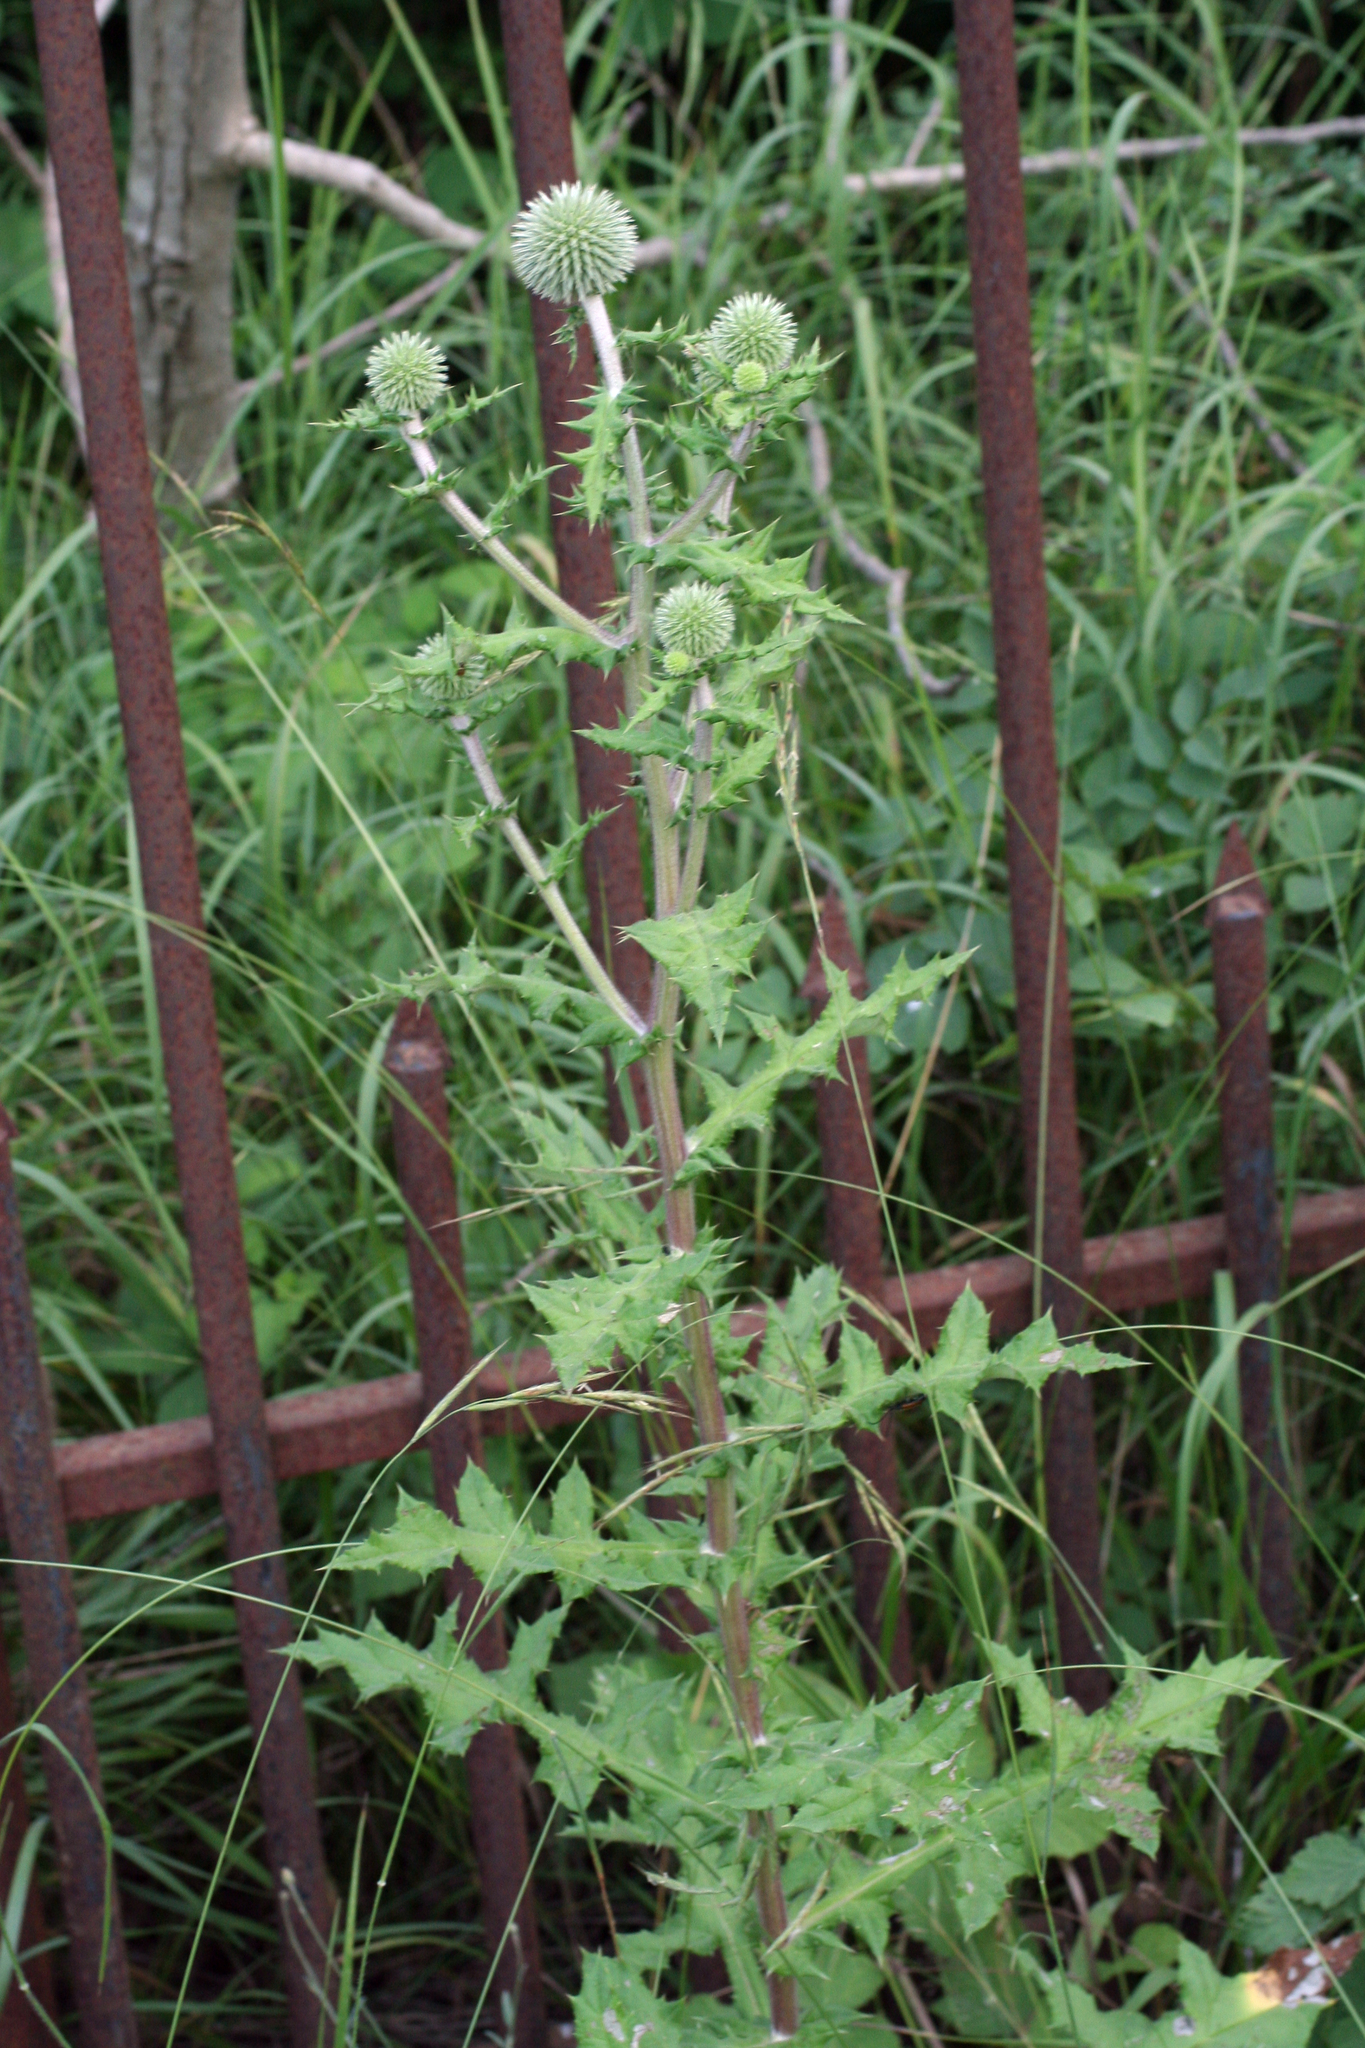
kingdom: Plantae
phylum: Tracheophyta
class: Magnoliopsida
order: Asterales
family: Asteraceae
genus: Echinops
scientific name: Echinops sphaerocephalus
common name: Glandular globe-thistle
